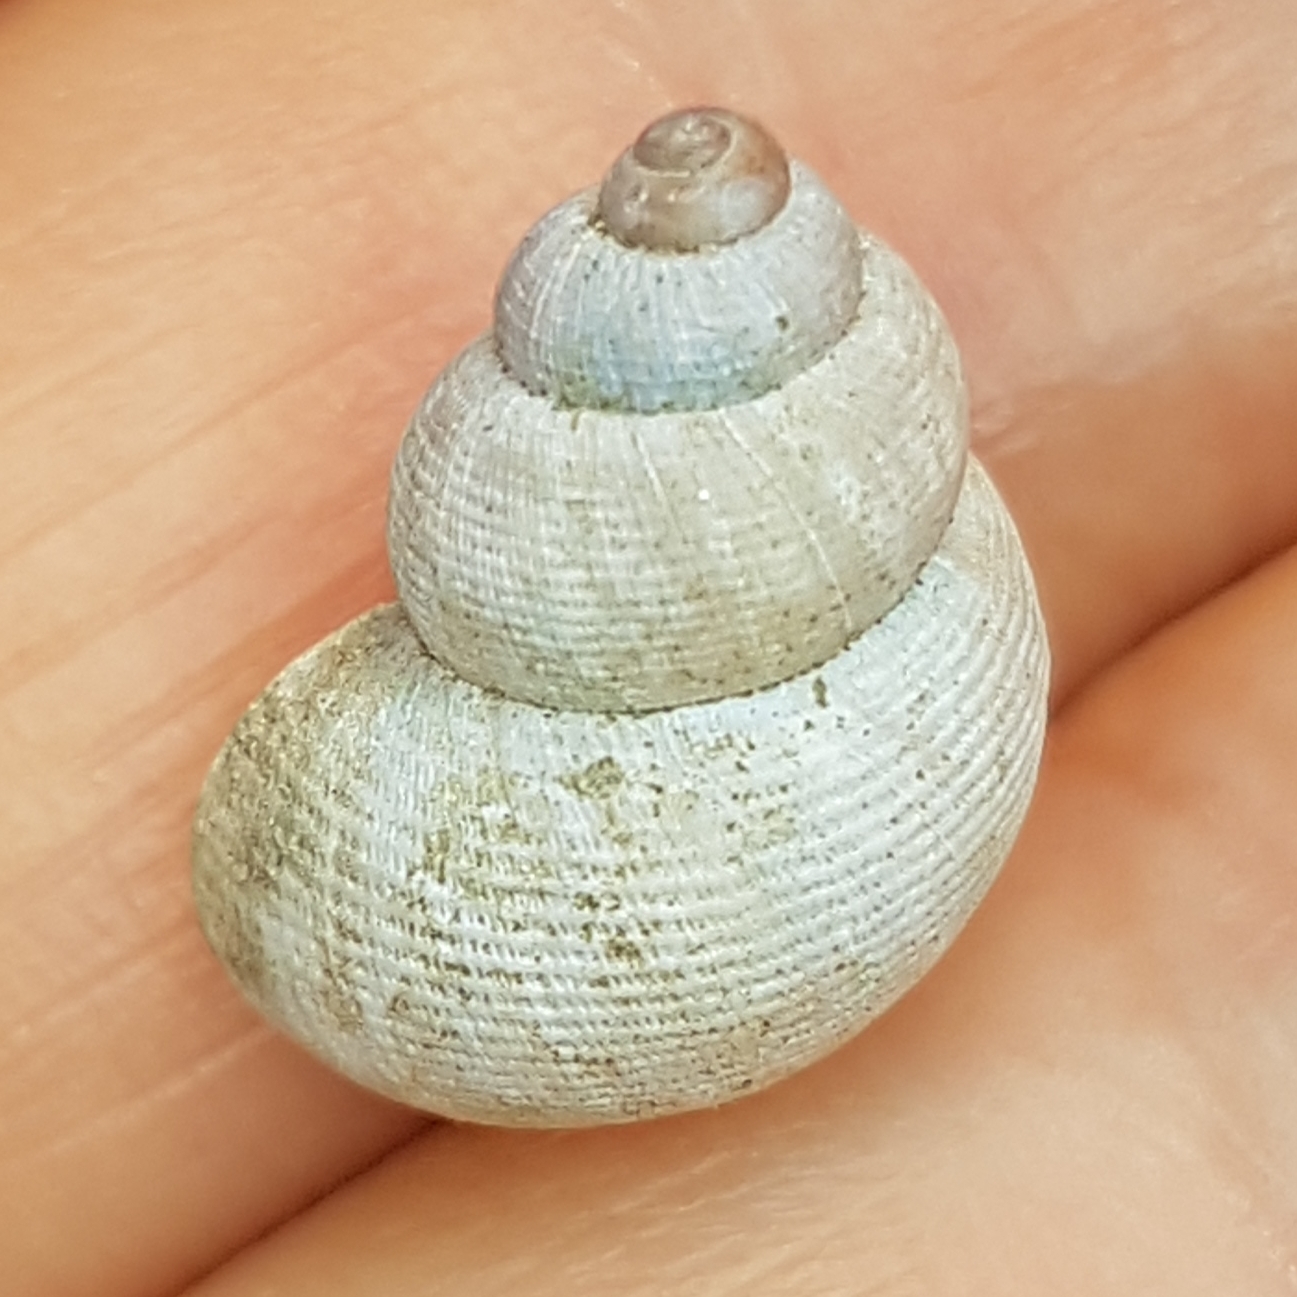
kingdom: Animalia
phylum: Mollusca
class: Gastropoda
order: Littorinimorpha
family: Pomatiidae
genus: Pomatias
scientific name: Pomatias elegans
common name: Red-mouthed snail
